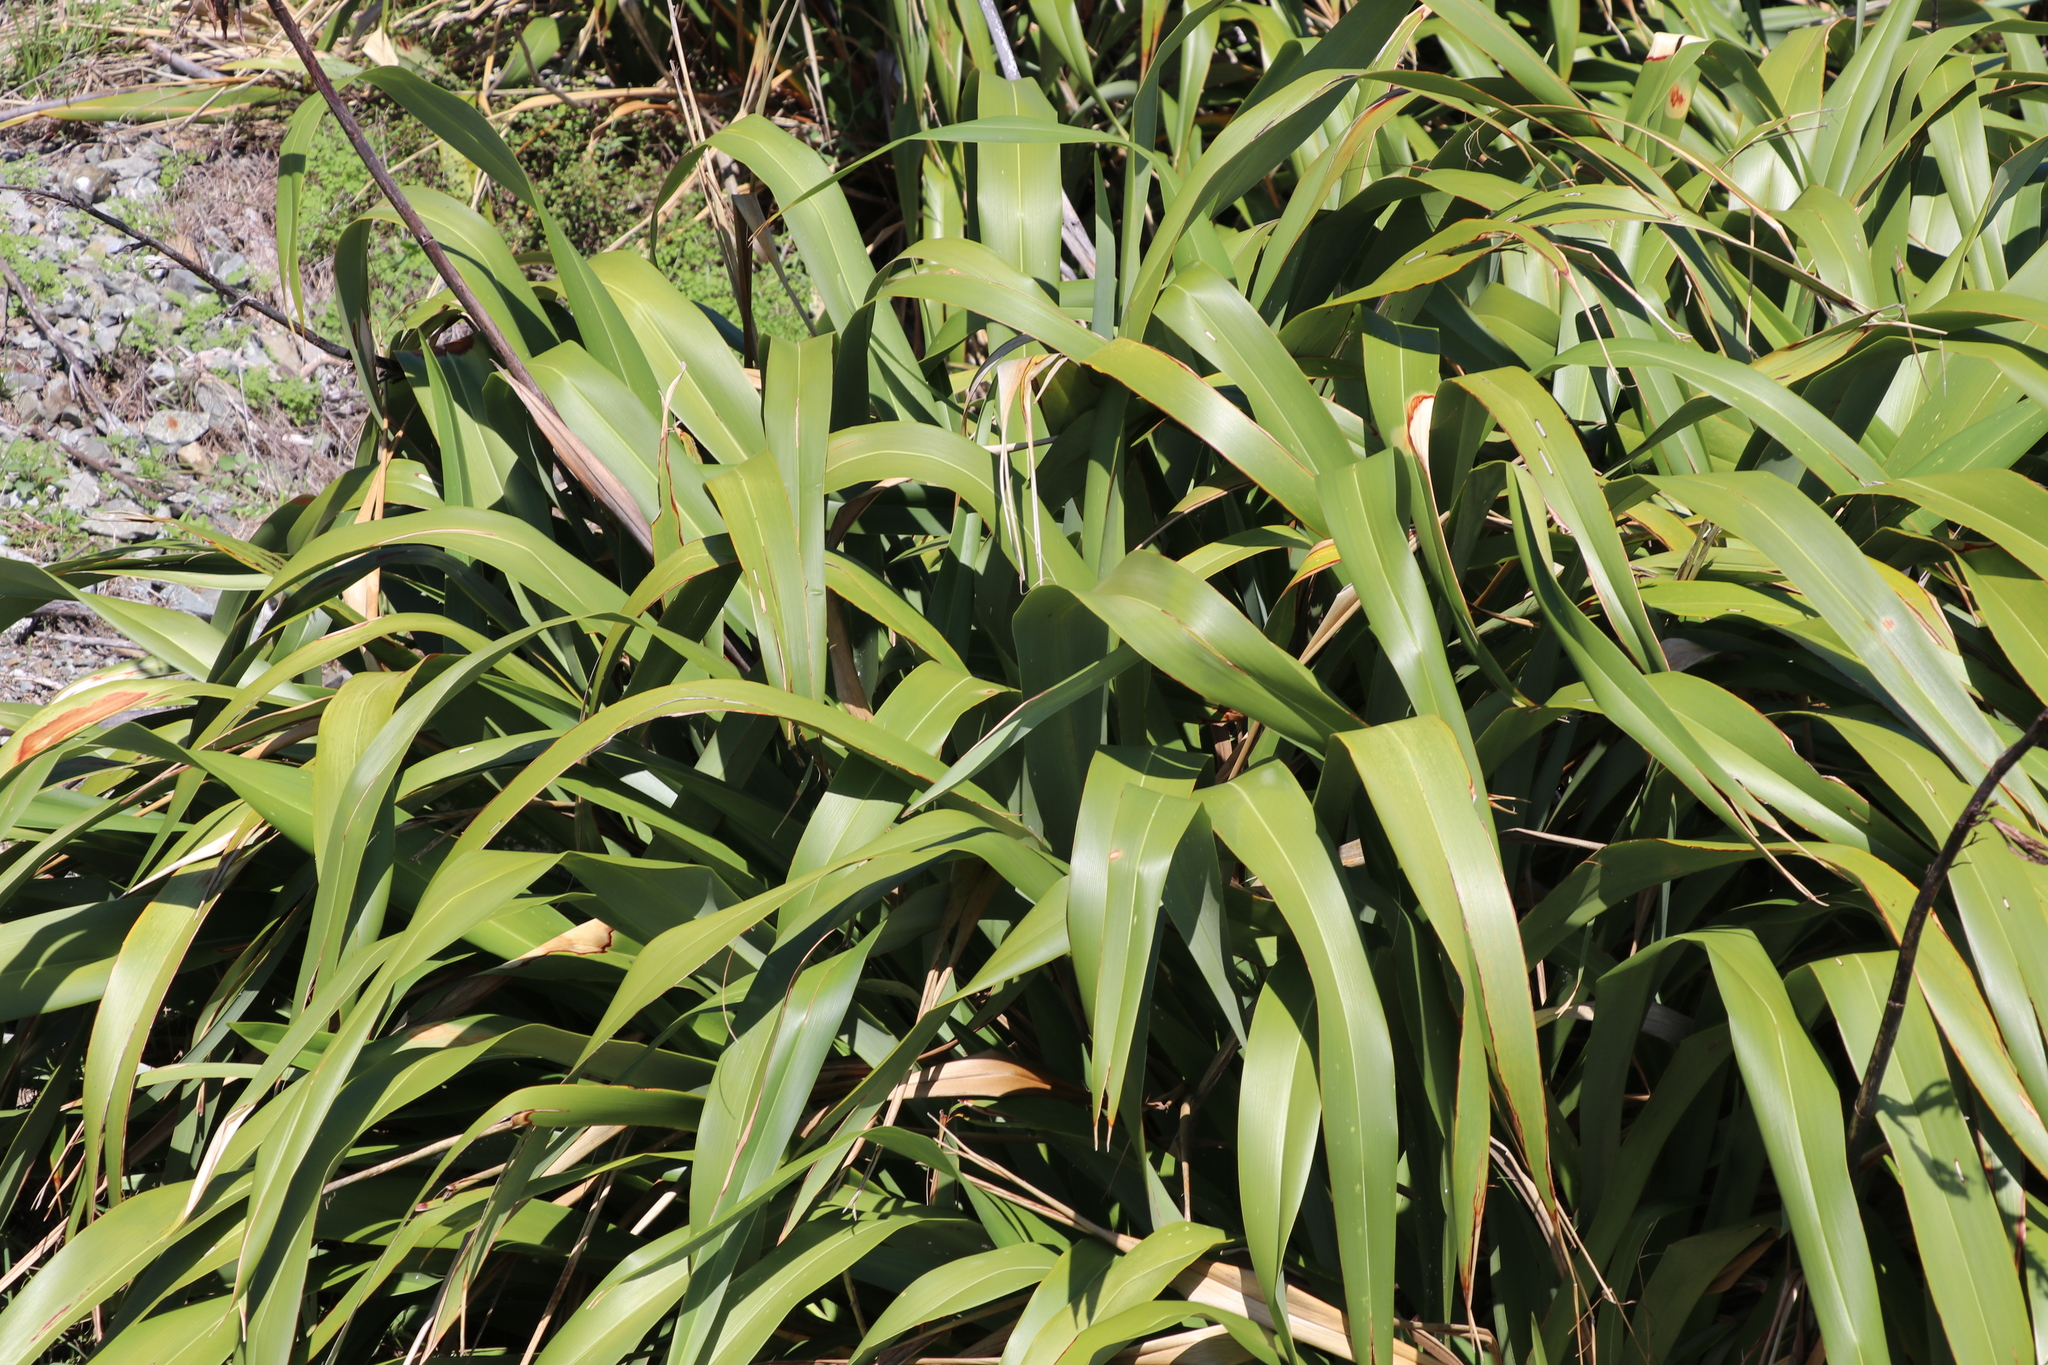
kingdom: Plantae
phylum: Tracheophyta
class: Liliopsida
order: Asparagales
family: Asphodelaceae
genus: Phormium
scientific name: Phormium colensoi
